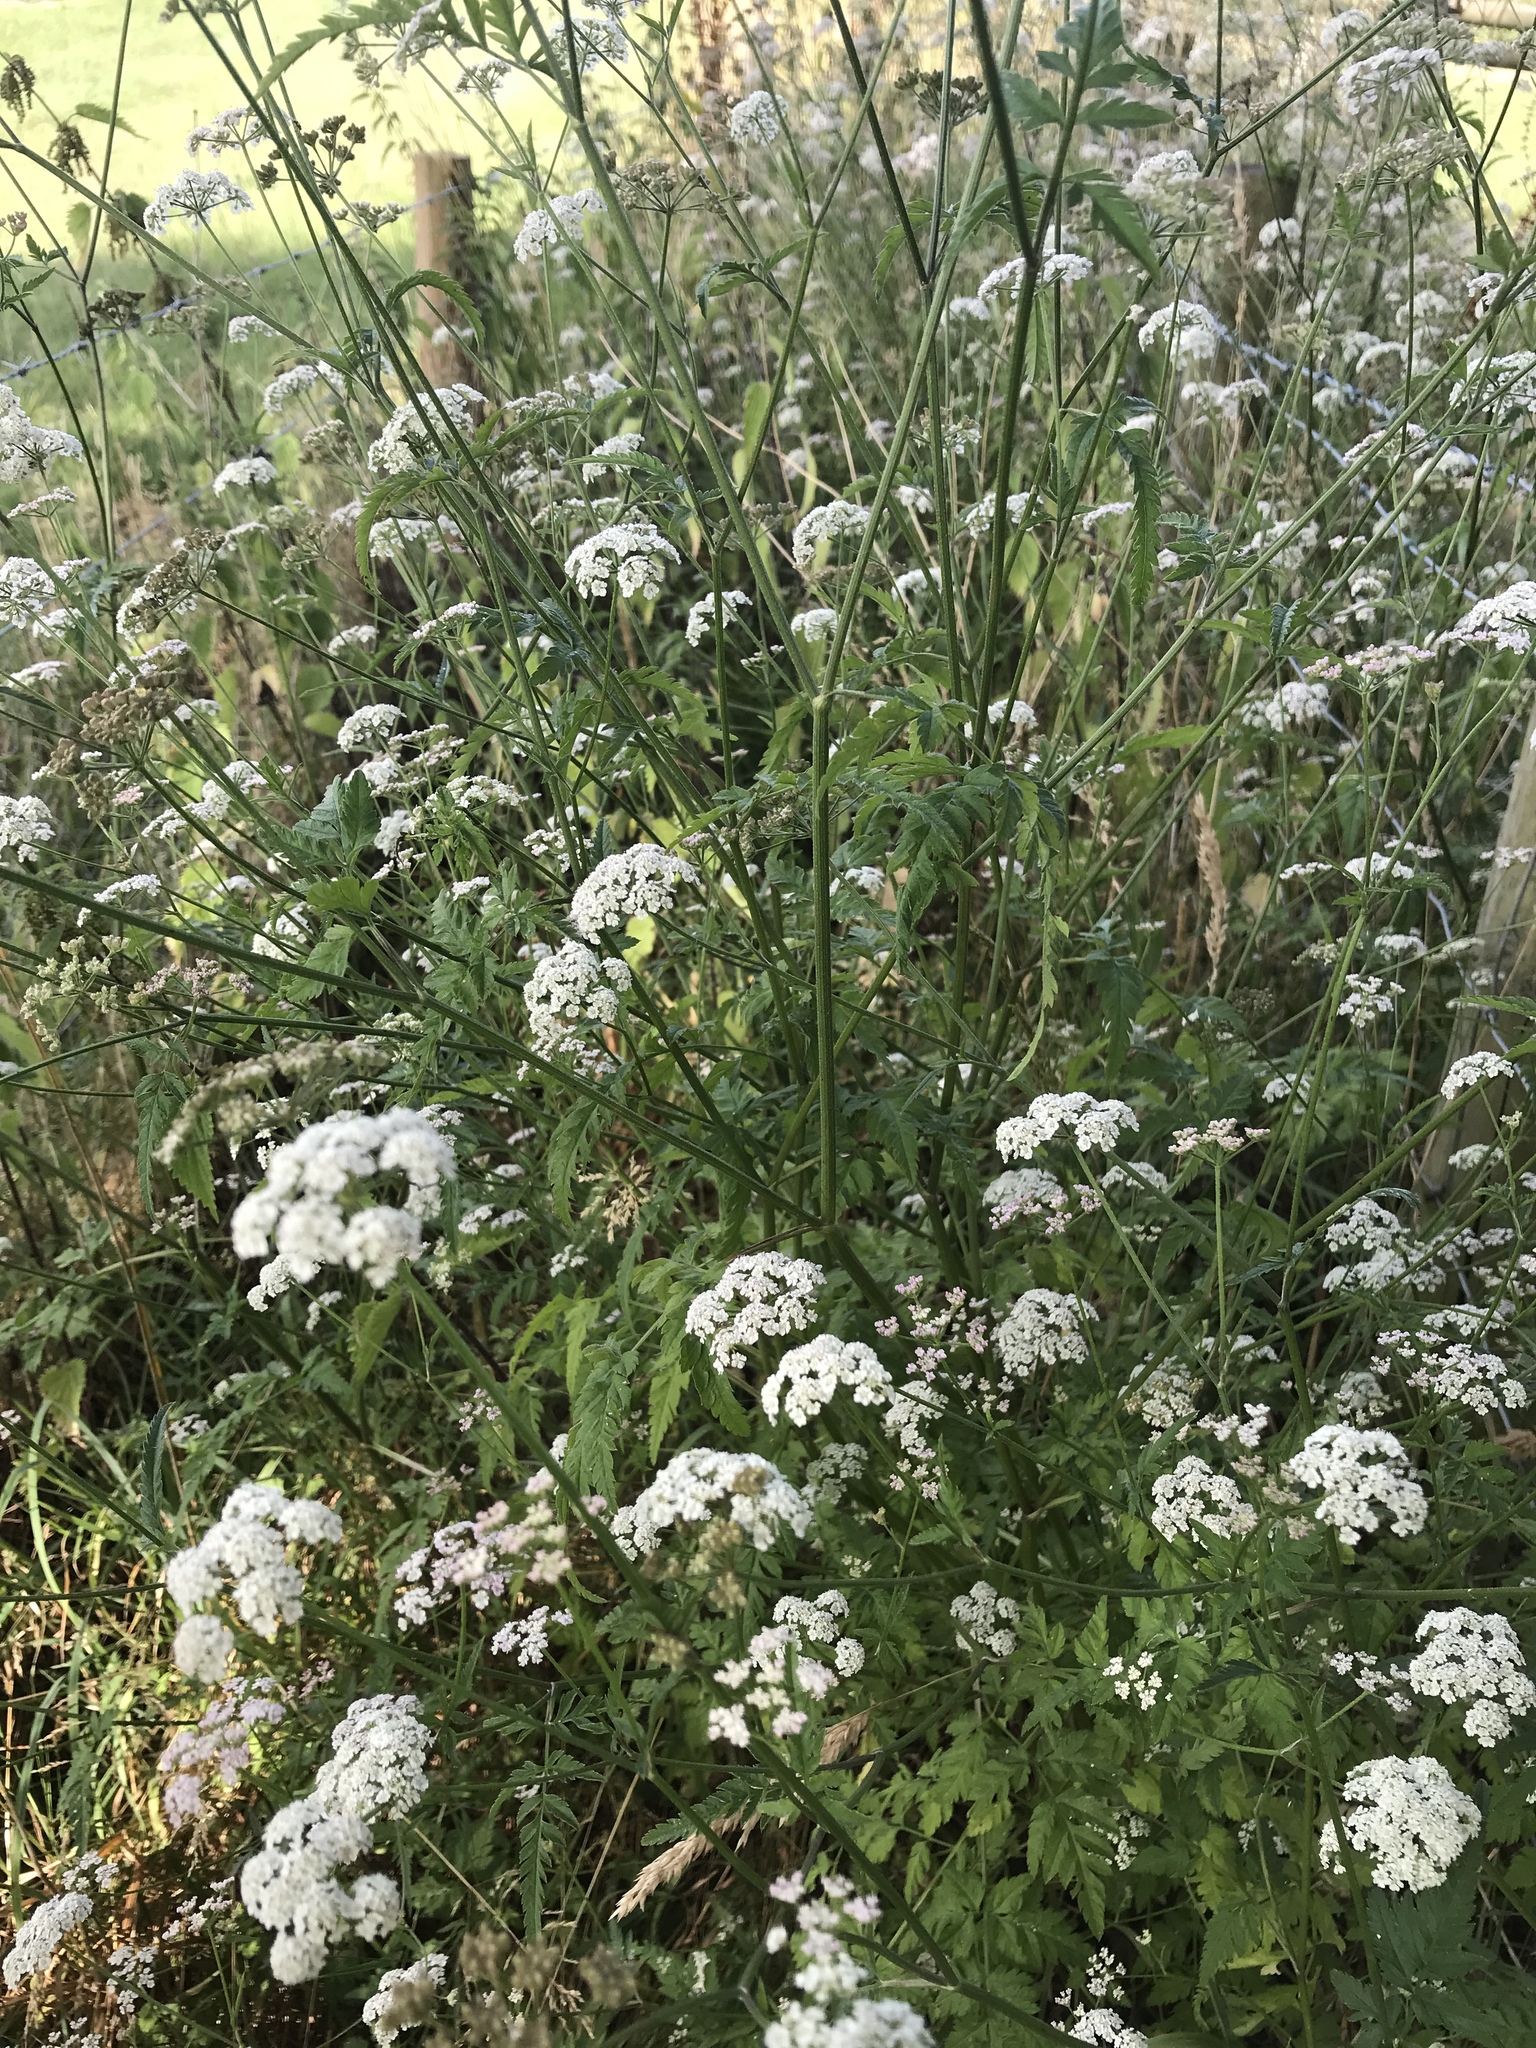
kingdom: Plantae
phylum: Tracheophyta
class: Magnoliopsida
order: Apiales
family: Apiaceae
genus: Torilis
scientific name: Torilis japonica
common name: Upright hedge-parsley
